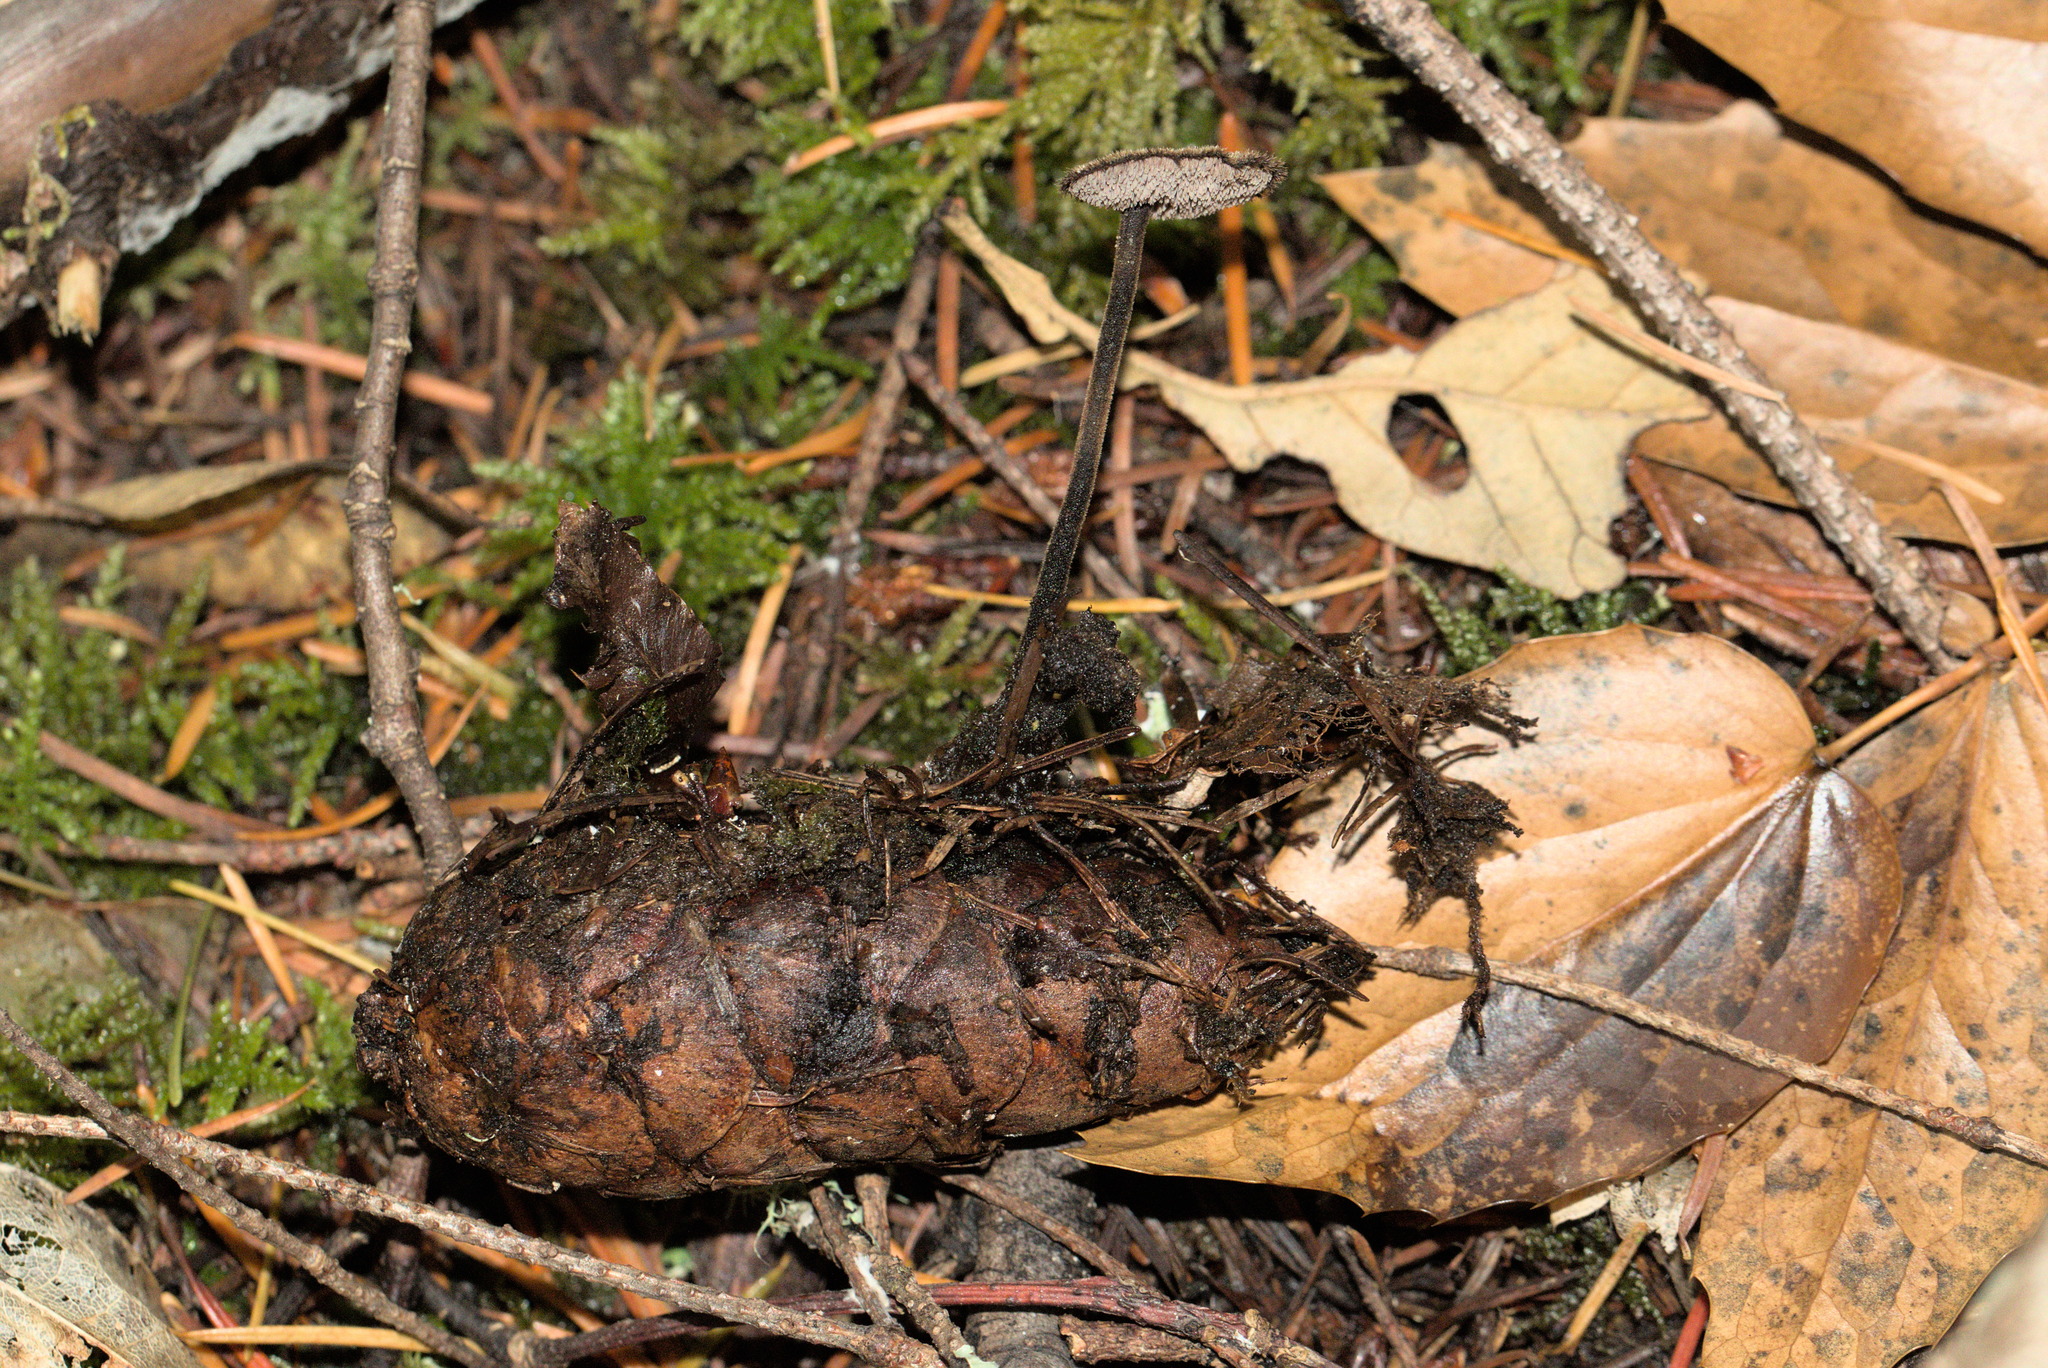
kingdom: Fungi
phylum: Basidiomycota
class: Agaricomycetes
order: Russulales
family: Auriscalpiaceae
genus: Auriscalpium
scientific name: Auriscalpium vulgare
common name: Earpick fungus
